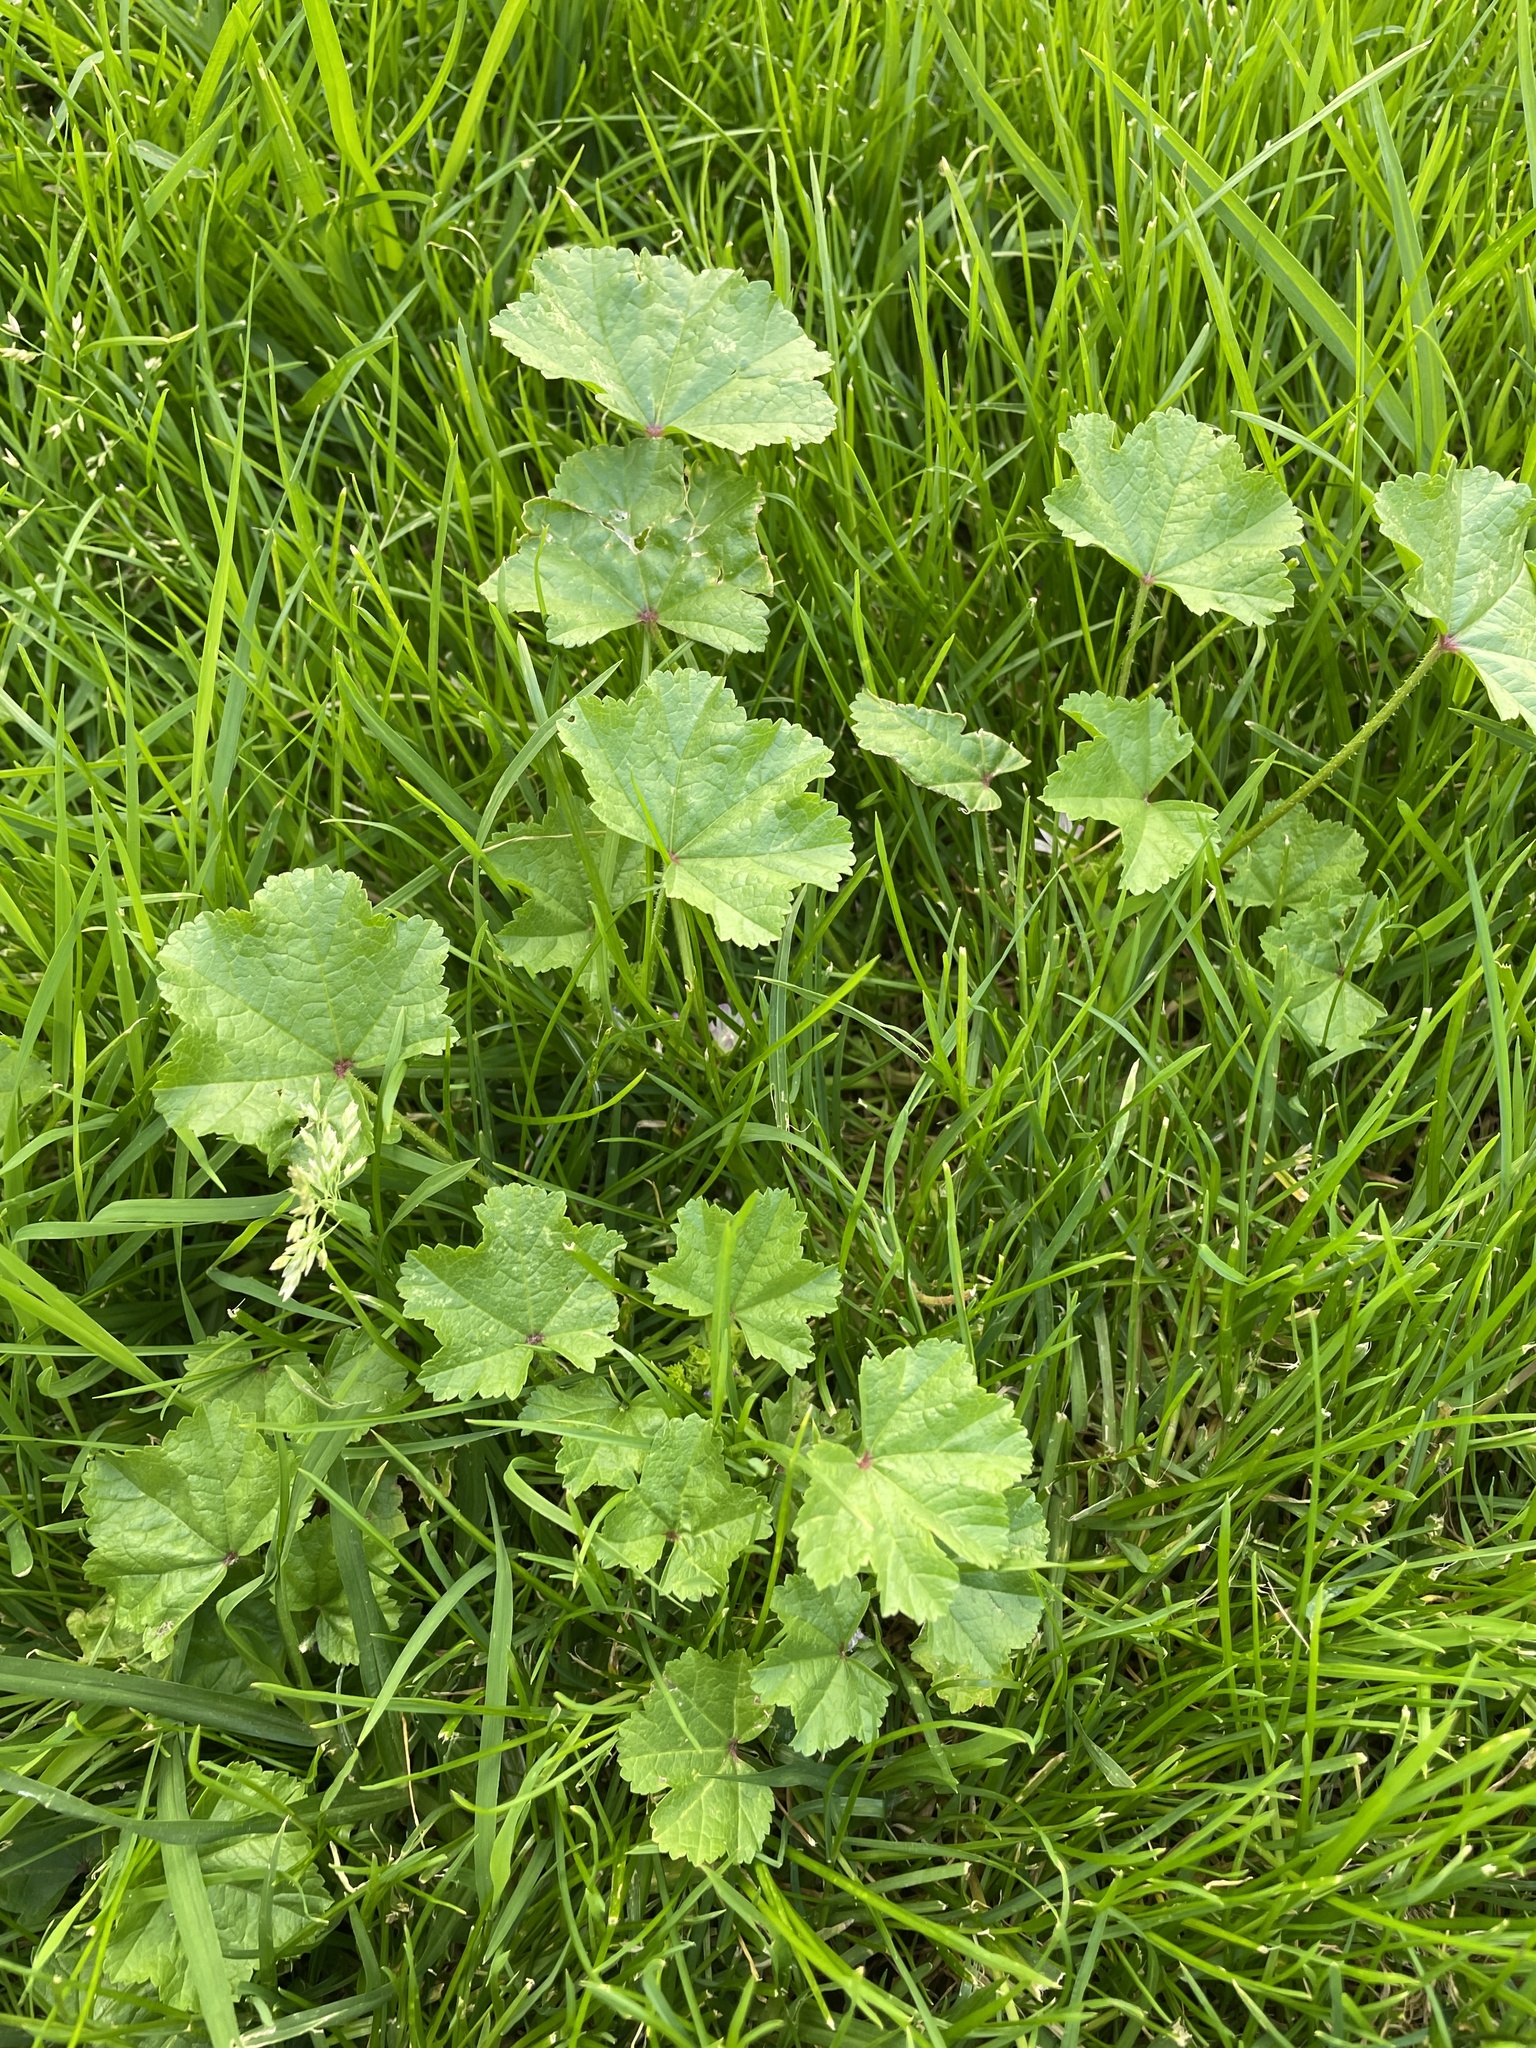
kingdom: Plantae
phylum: Tracheophyta
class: Magnoliopsida
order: Malvales
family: Malvaceae
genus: Malva
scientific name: Malva
